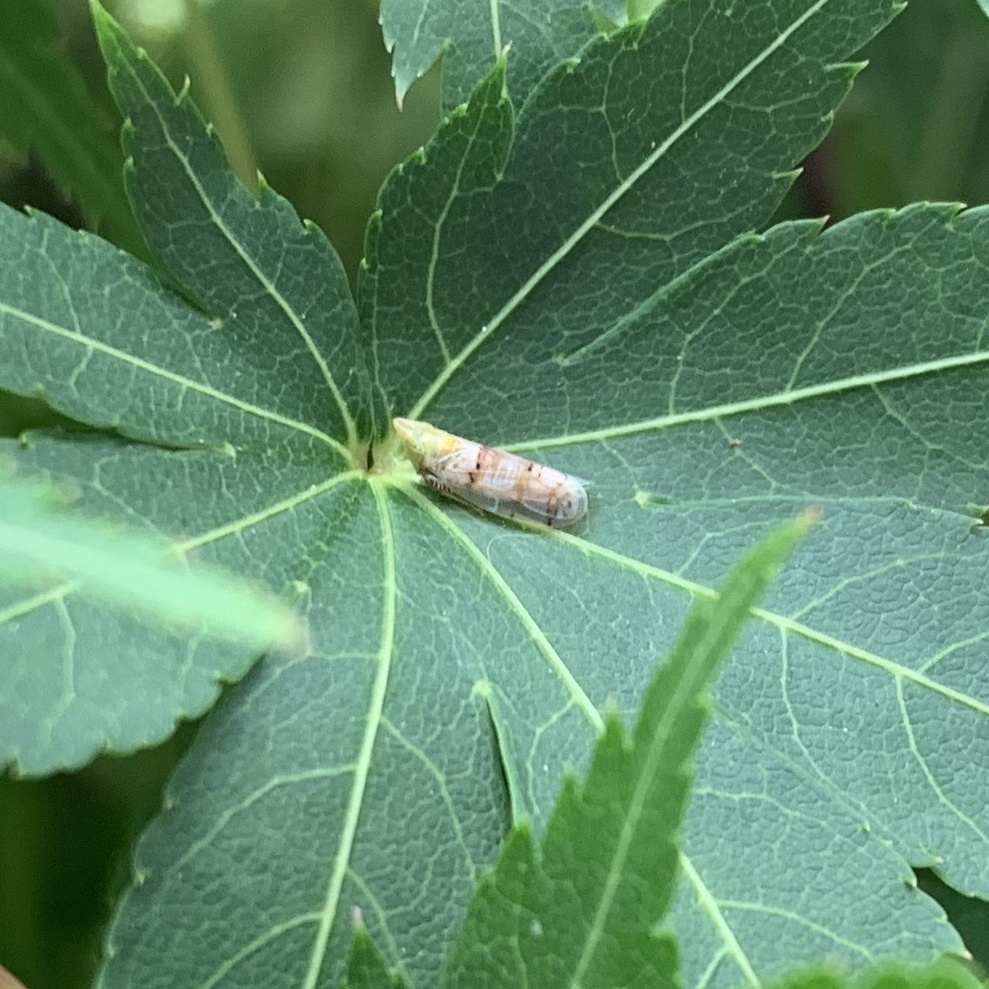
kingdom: Animalia
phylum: Arthropoda
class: Insecta
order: Hemiptera
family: Cicadellidae
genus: Japananus
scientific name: Japananus hyalinus
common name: The japanese maple leafhopper
